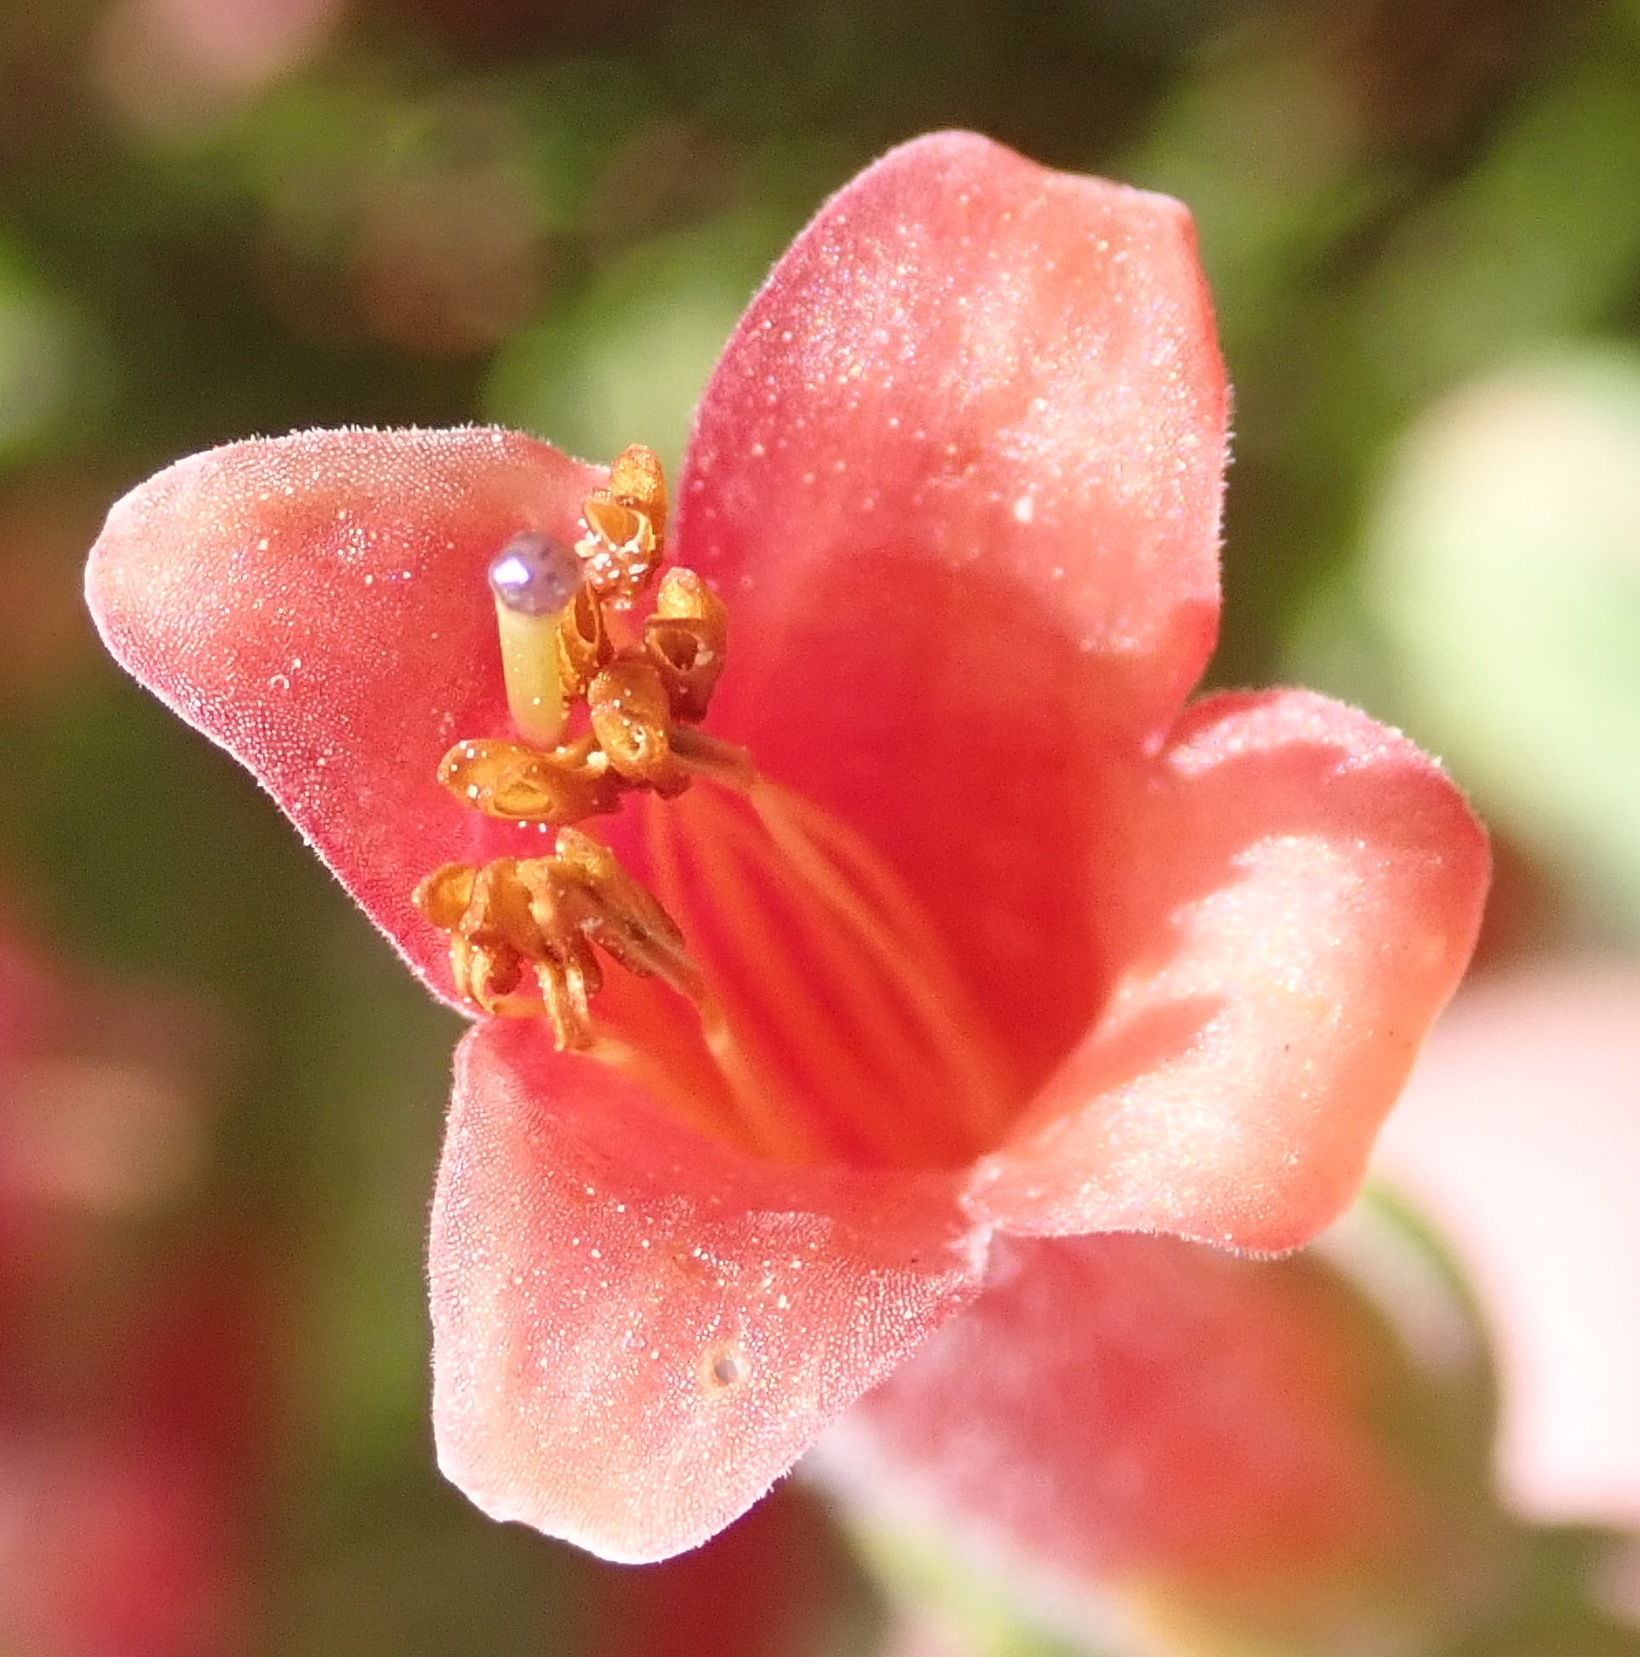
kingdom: Plantae
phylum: Tracheophyta
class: Magnoliopsida
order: Ericales
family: Ericaceae
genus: Erica
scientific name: Erica curviflora
